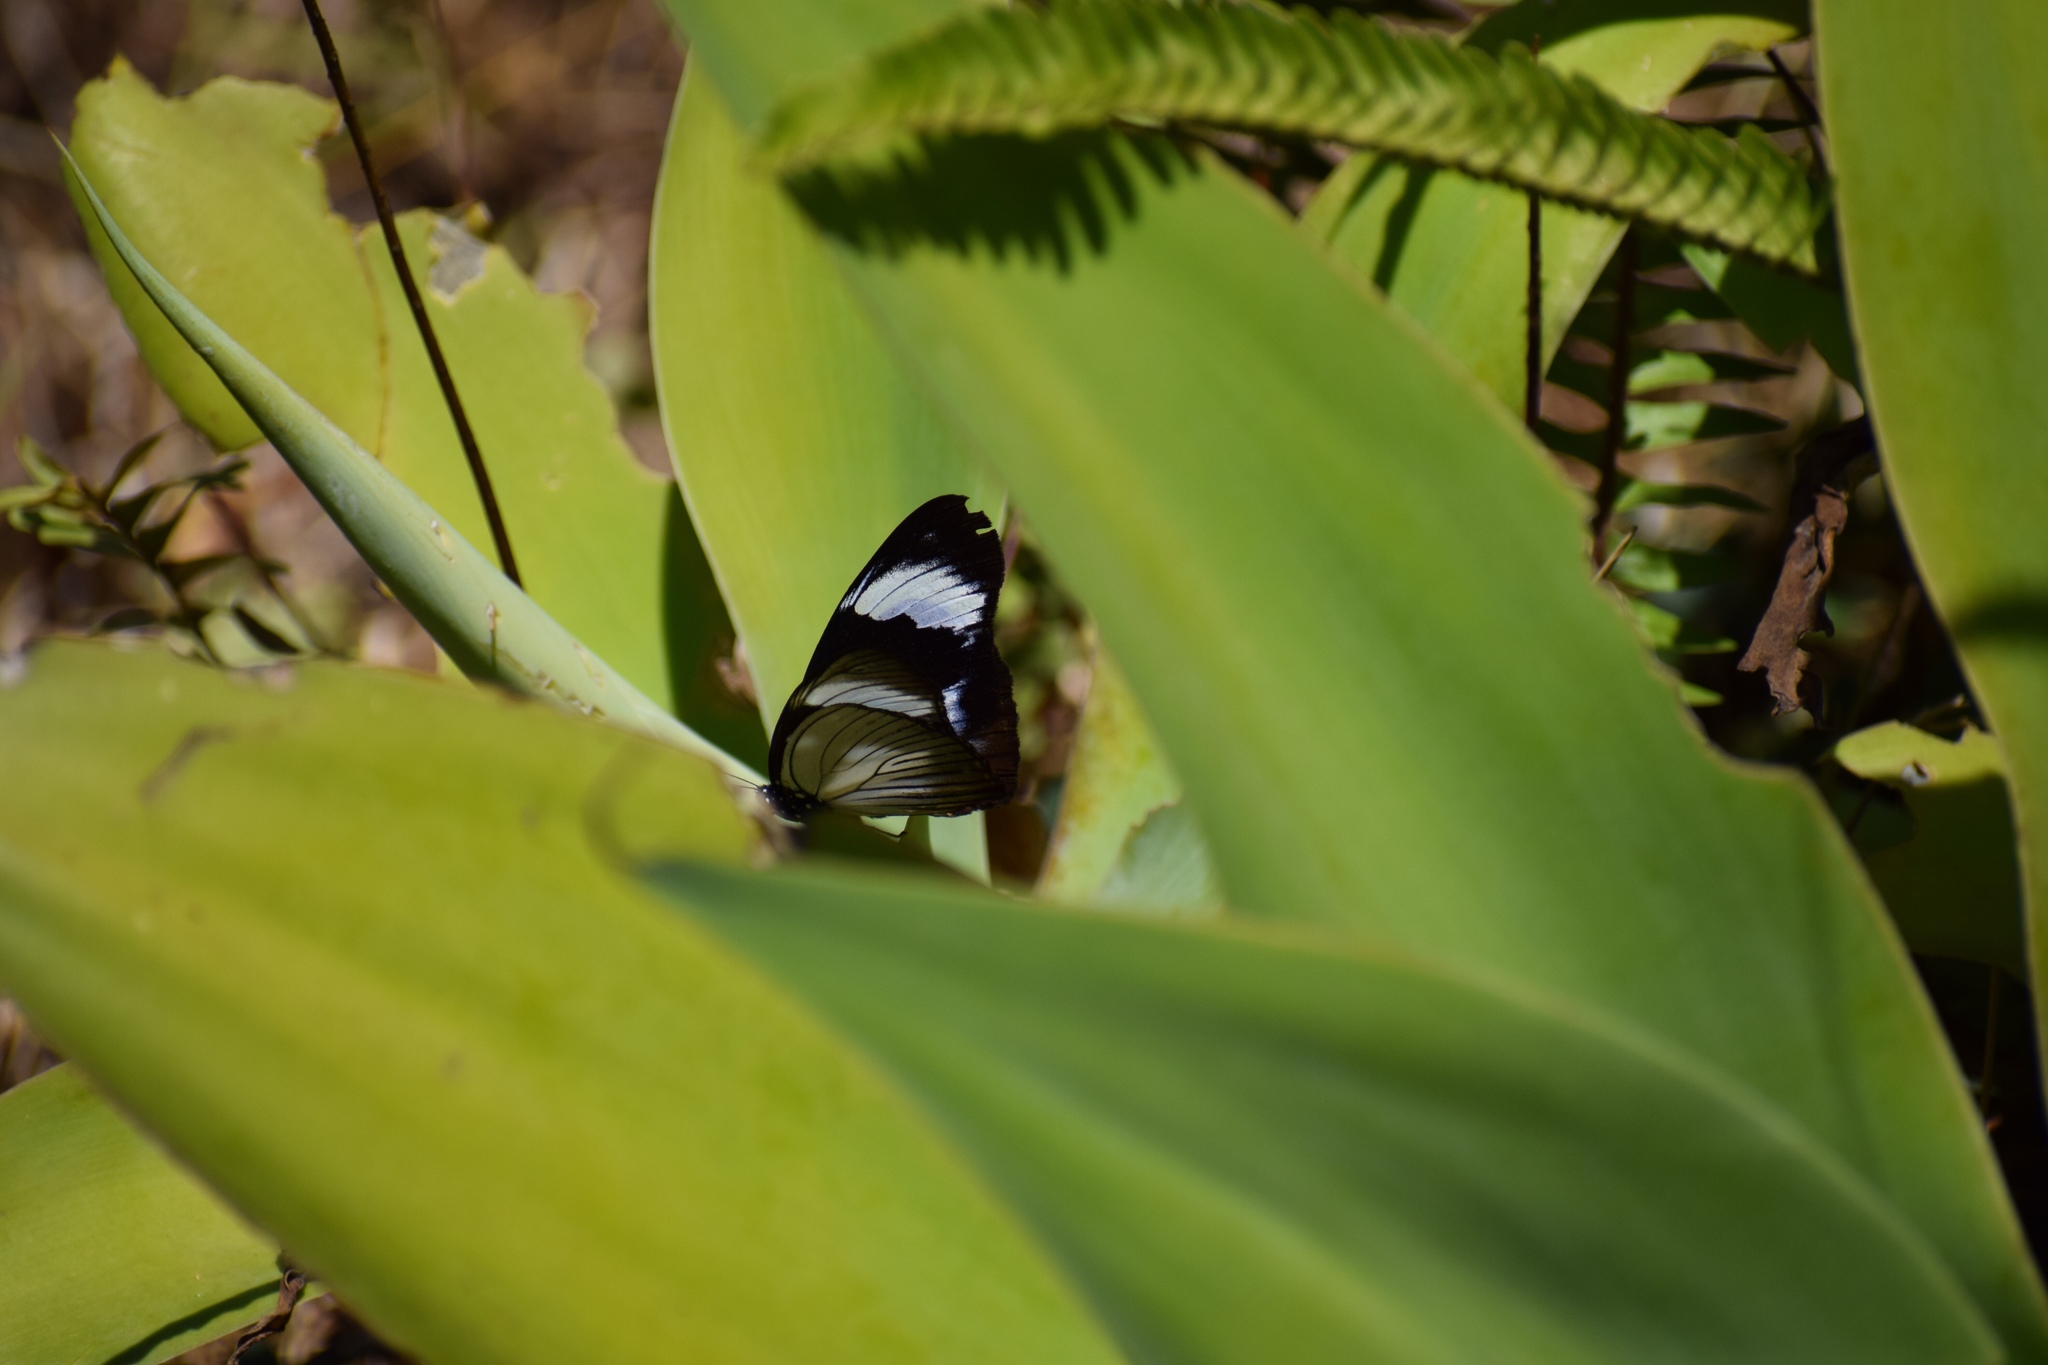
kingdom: Animalia
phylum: Arthropoda
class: Insecta
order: Lepidoptera
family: Nymphalidae
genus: Hypolimnas
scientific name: Hypolimnas dubius
